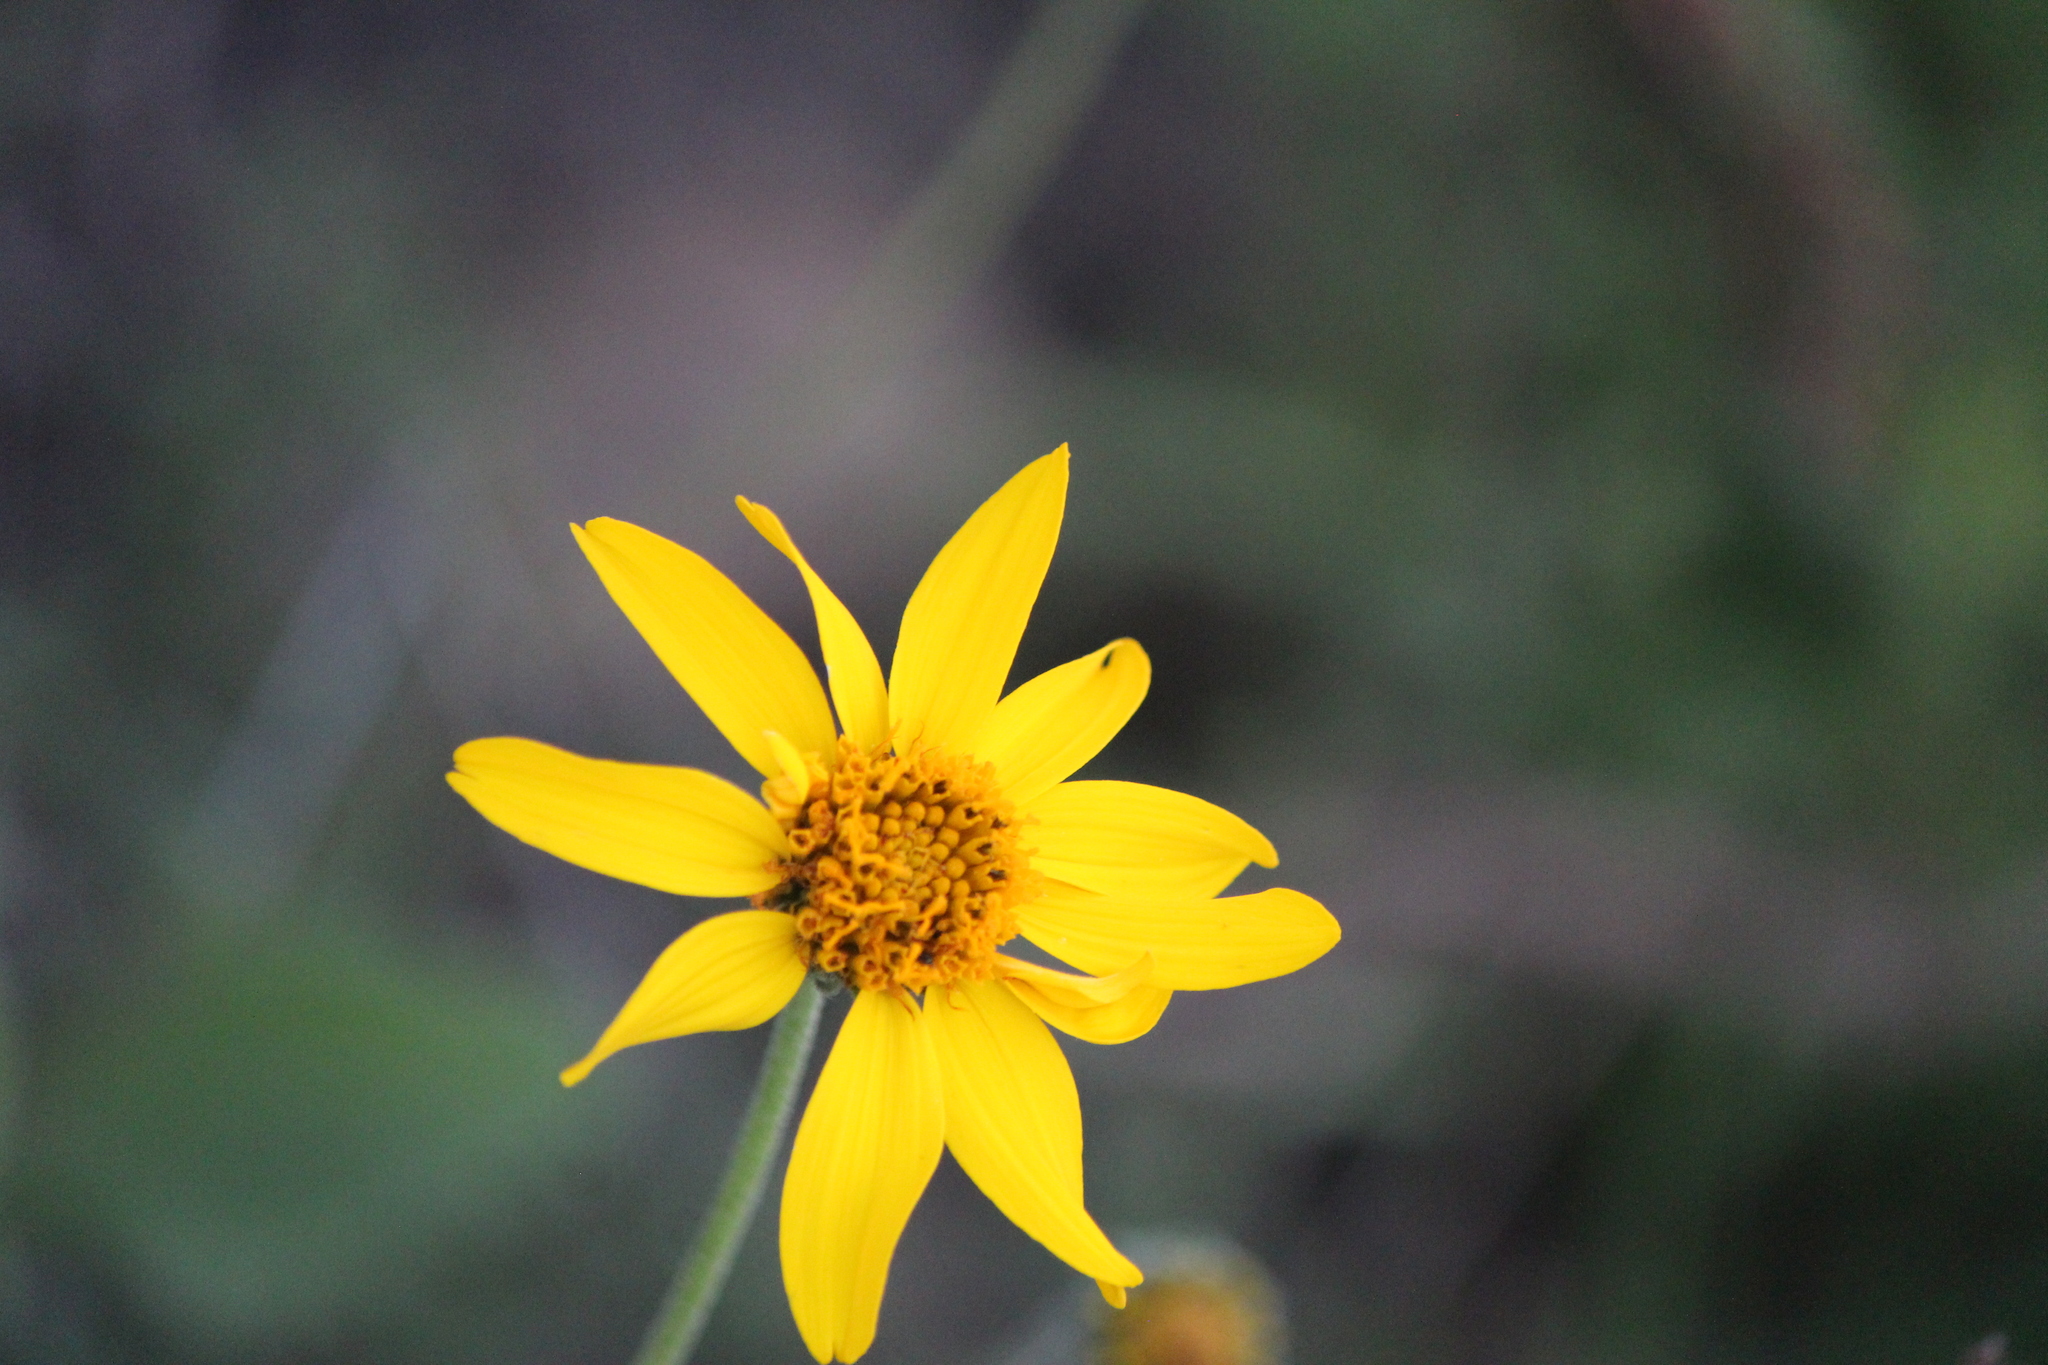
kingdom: Plantae
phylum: Tracheophyta
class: Magnoliopsida
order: Asterales
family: Asteraceae
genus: Verbesina
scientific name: Verbesina pedunculosa
